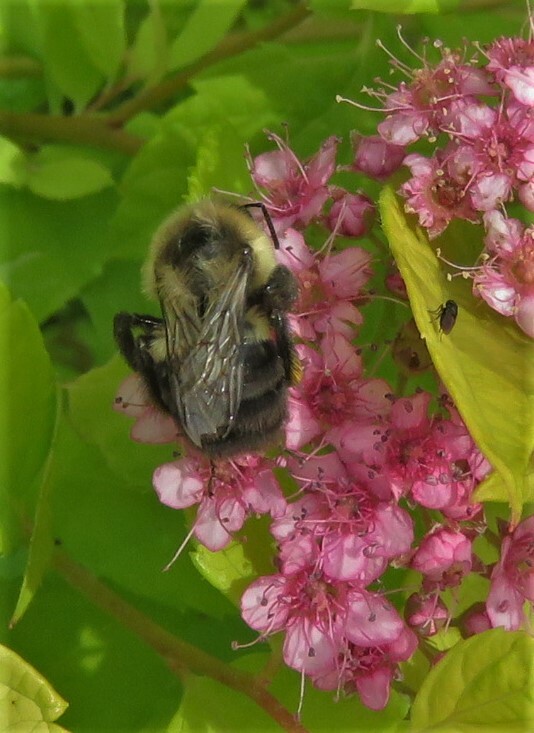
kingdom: Animalia
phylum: Arthropoda
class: Insecta
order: Hymenoptera
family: Apidae
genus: Bombus
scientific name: Bombus impatiens
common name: Common eastern bumble bee
